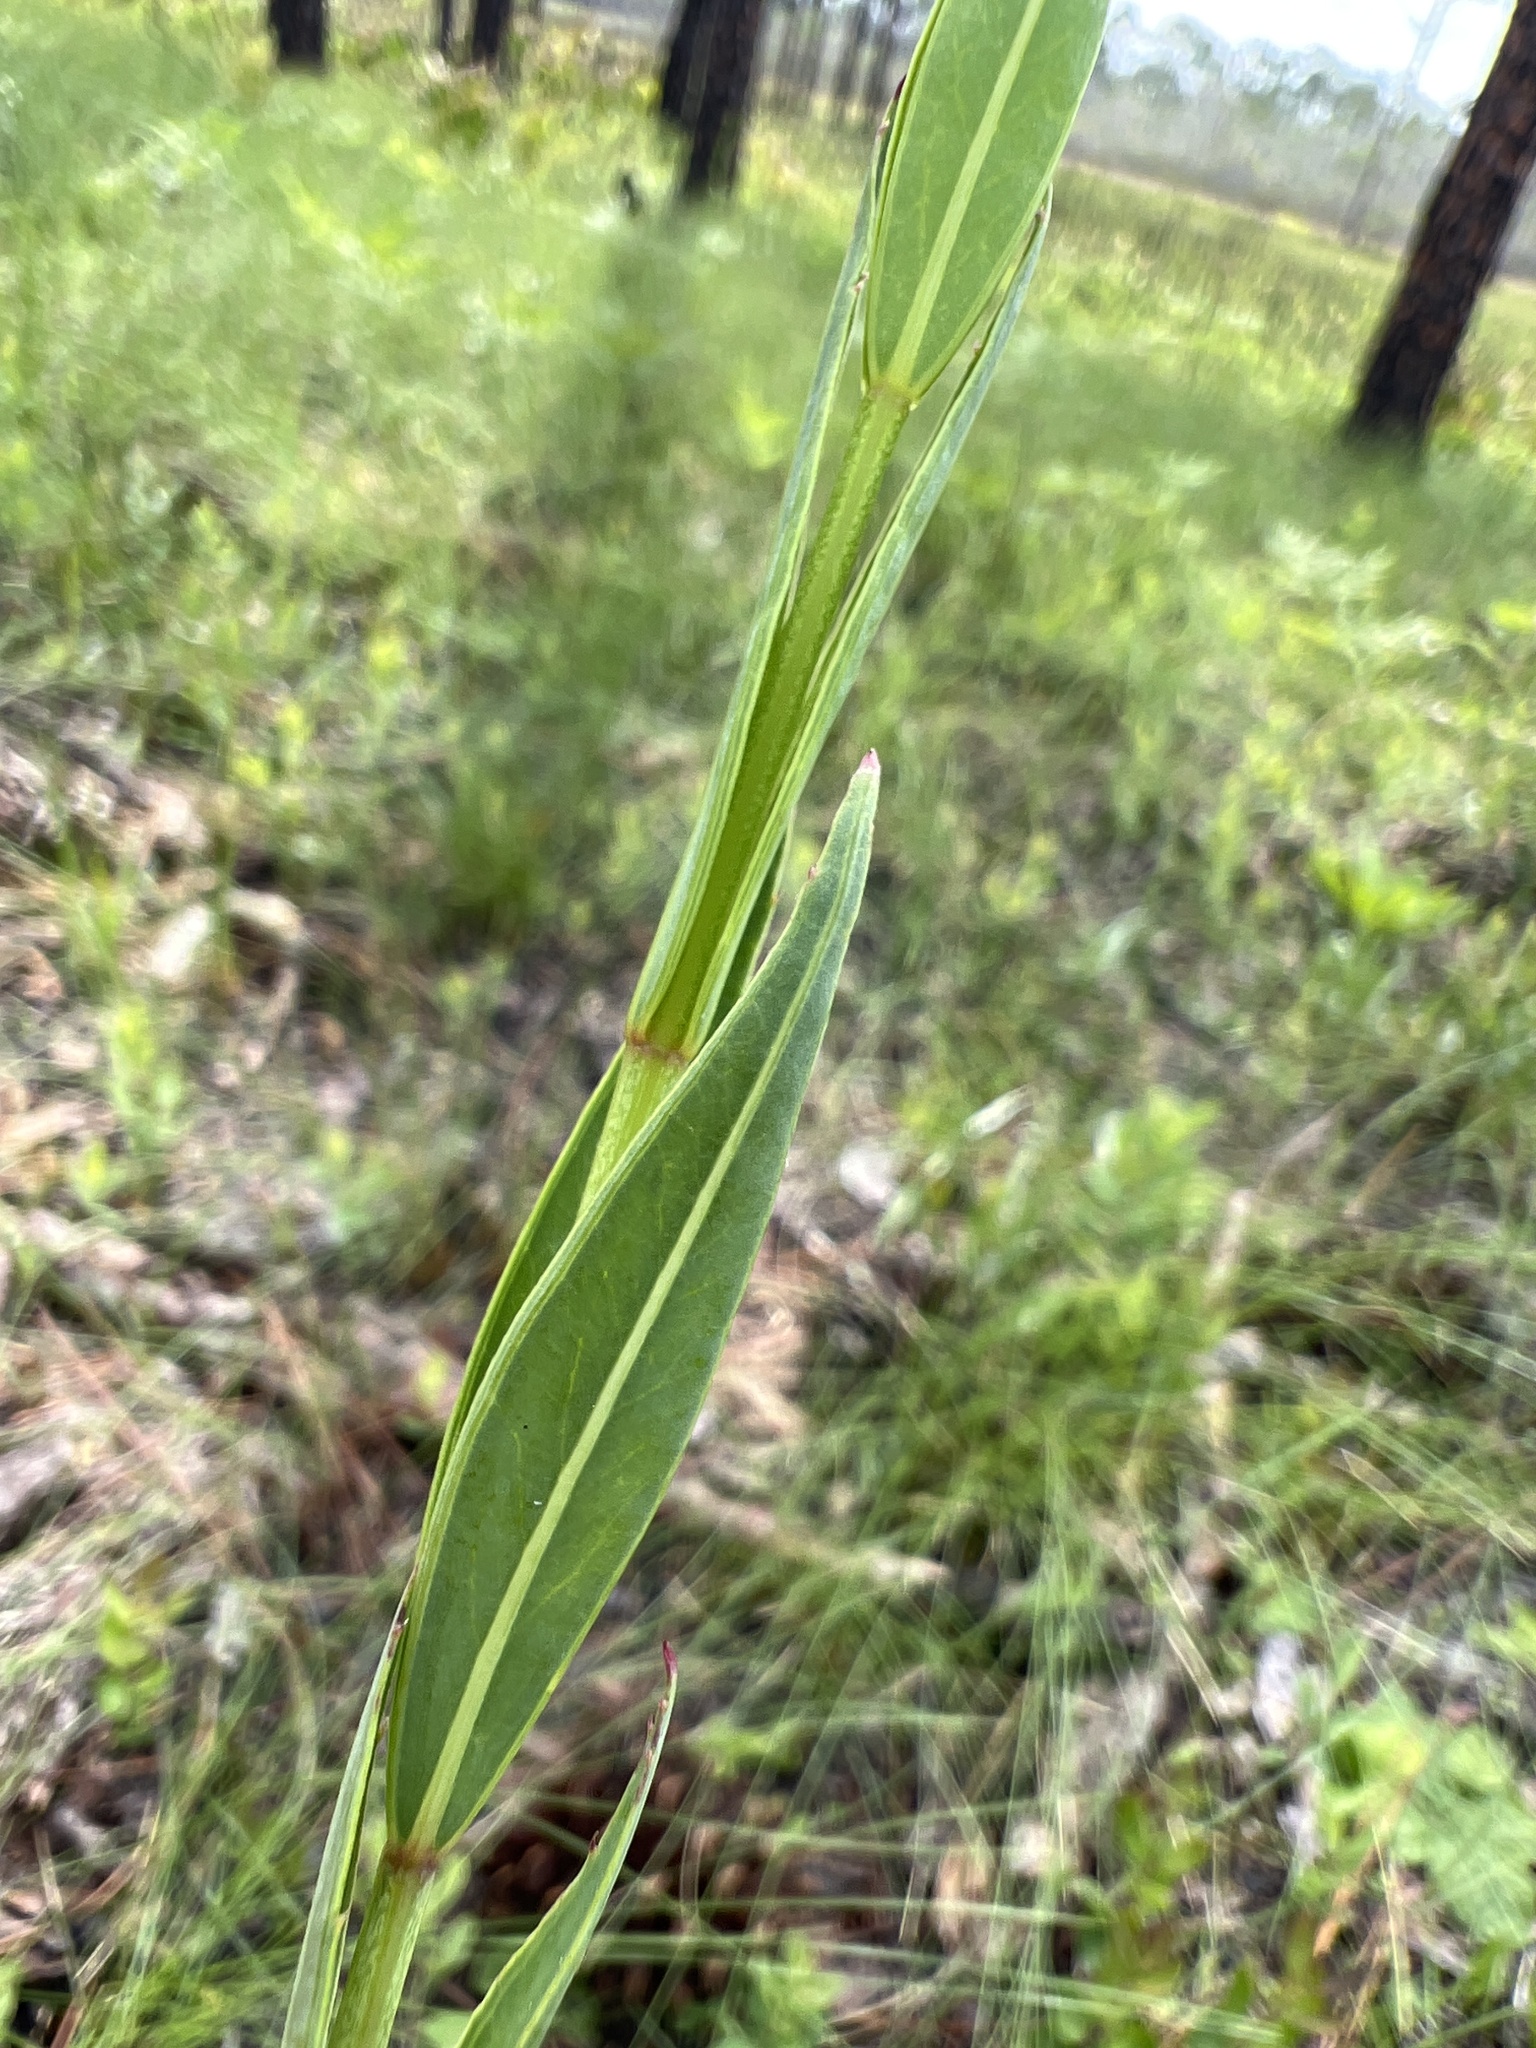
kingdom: Plantae
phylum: Tracheophyta
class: Magnoliopsida
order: Myrtales
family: Melastomataceae
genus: Rhexia
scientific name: Rhexia alifanus
